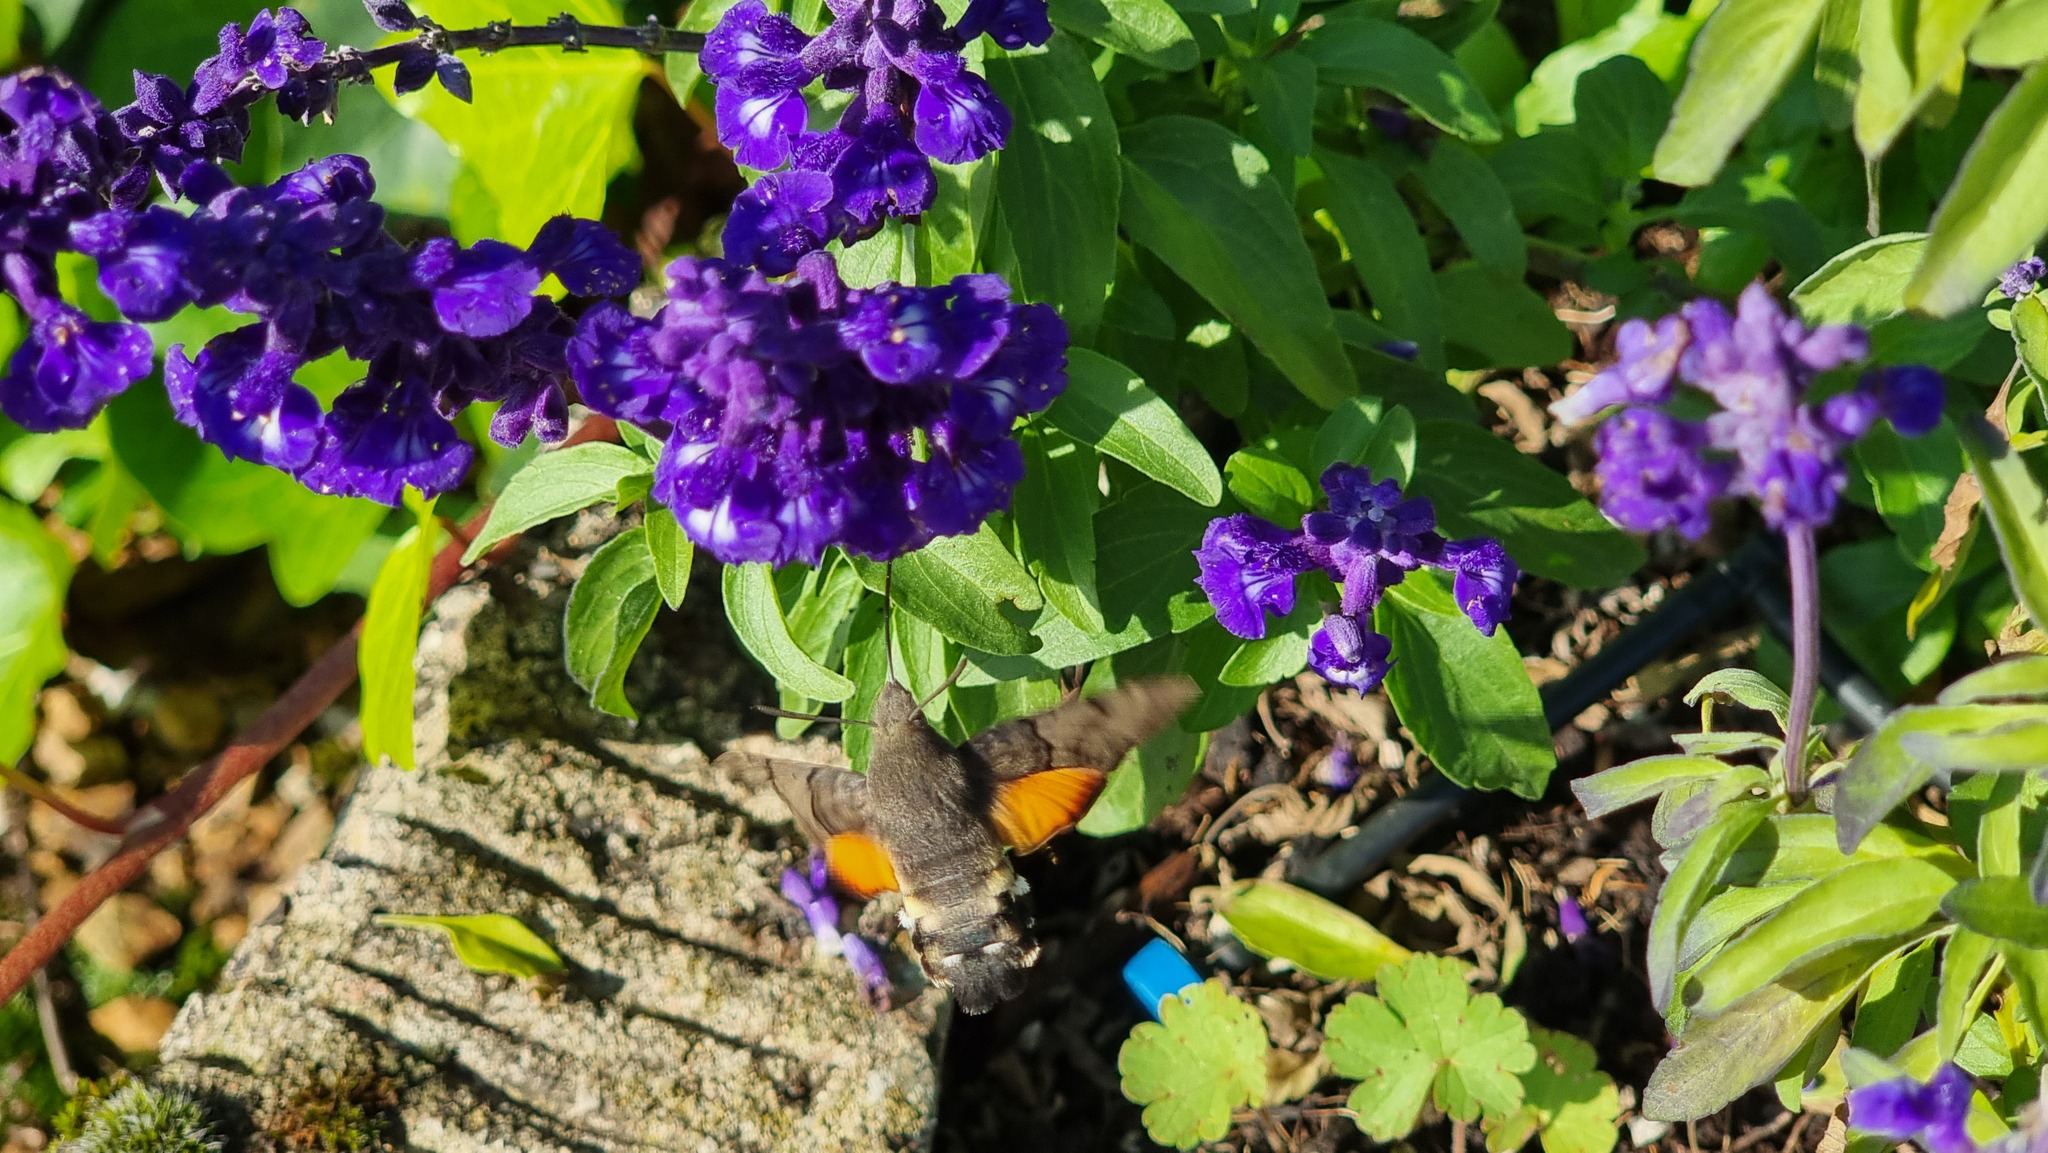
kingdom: Animalia
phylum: Arthropoda
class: Insecta
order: Lepidoptera
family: Sphingidae
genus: Macroglossum
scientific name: Macroglossum stellatarum
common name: Humming-bird hawk-moth
